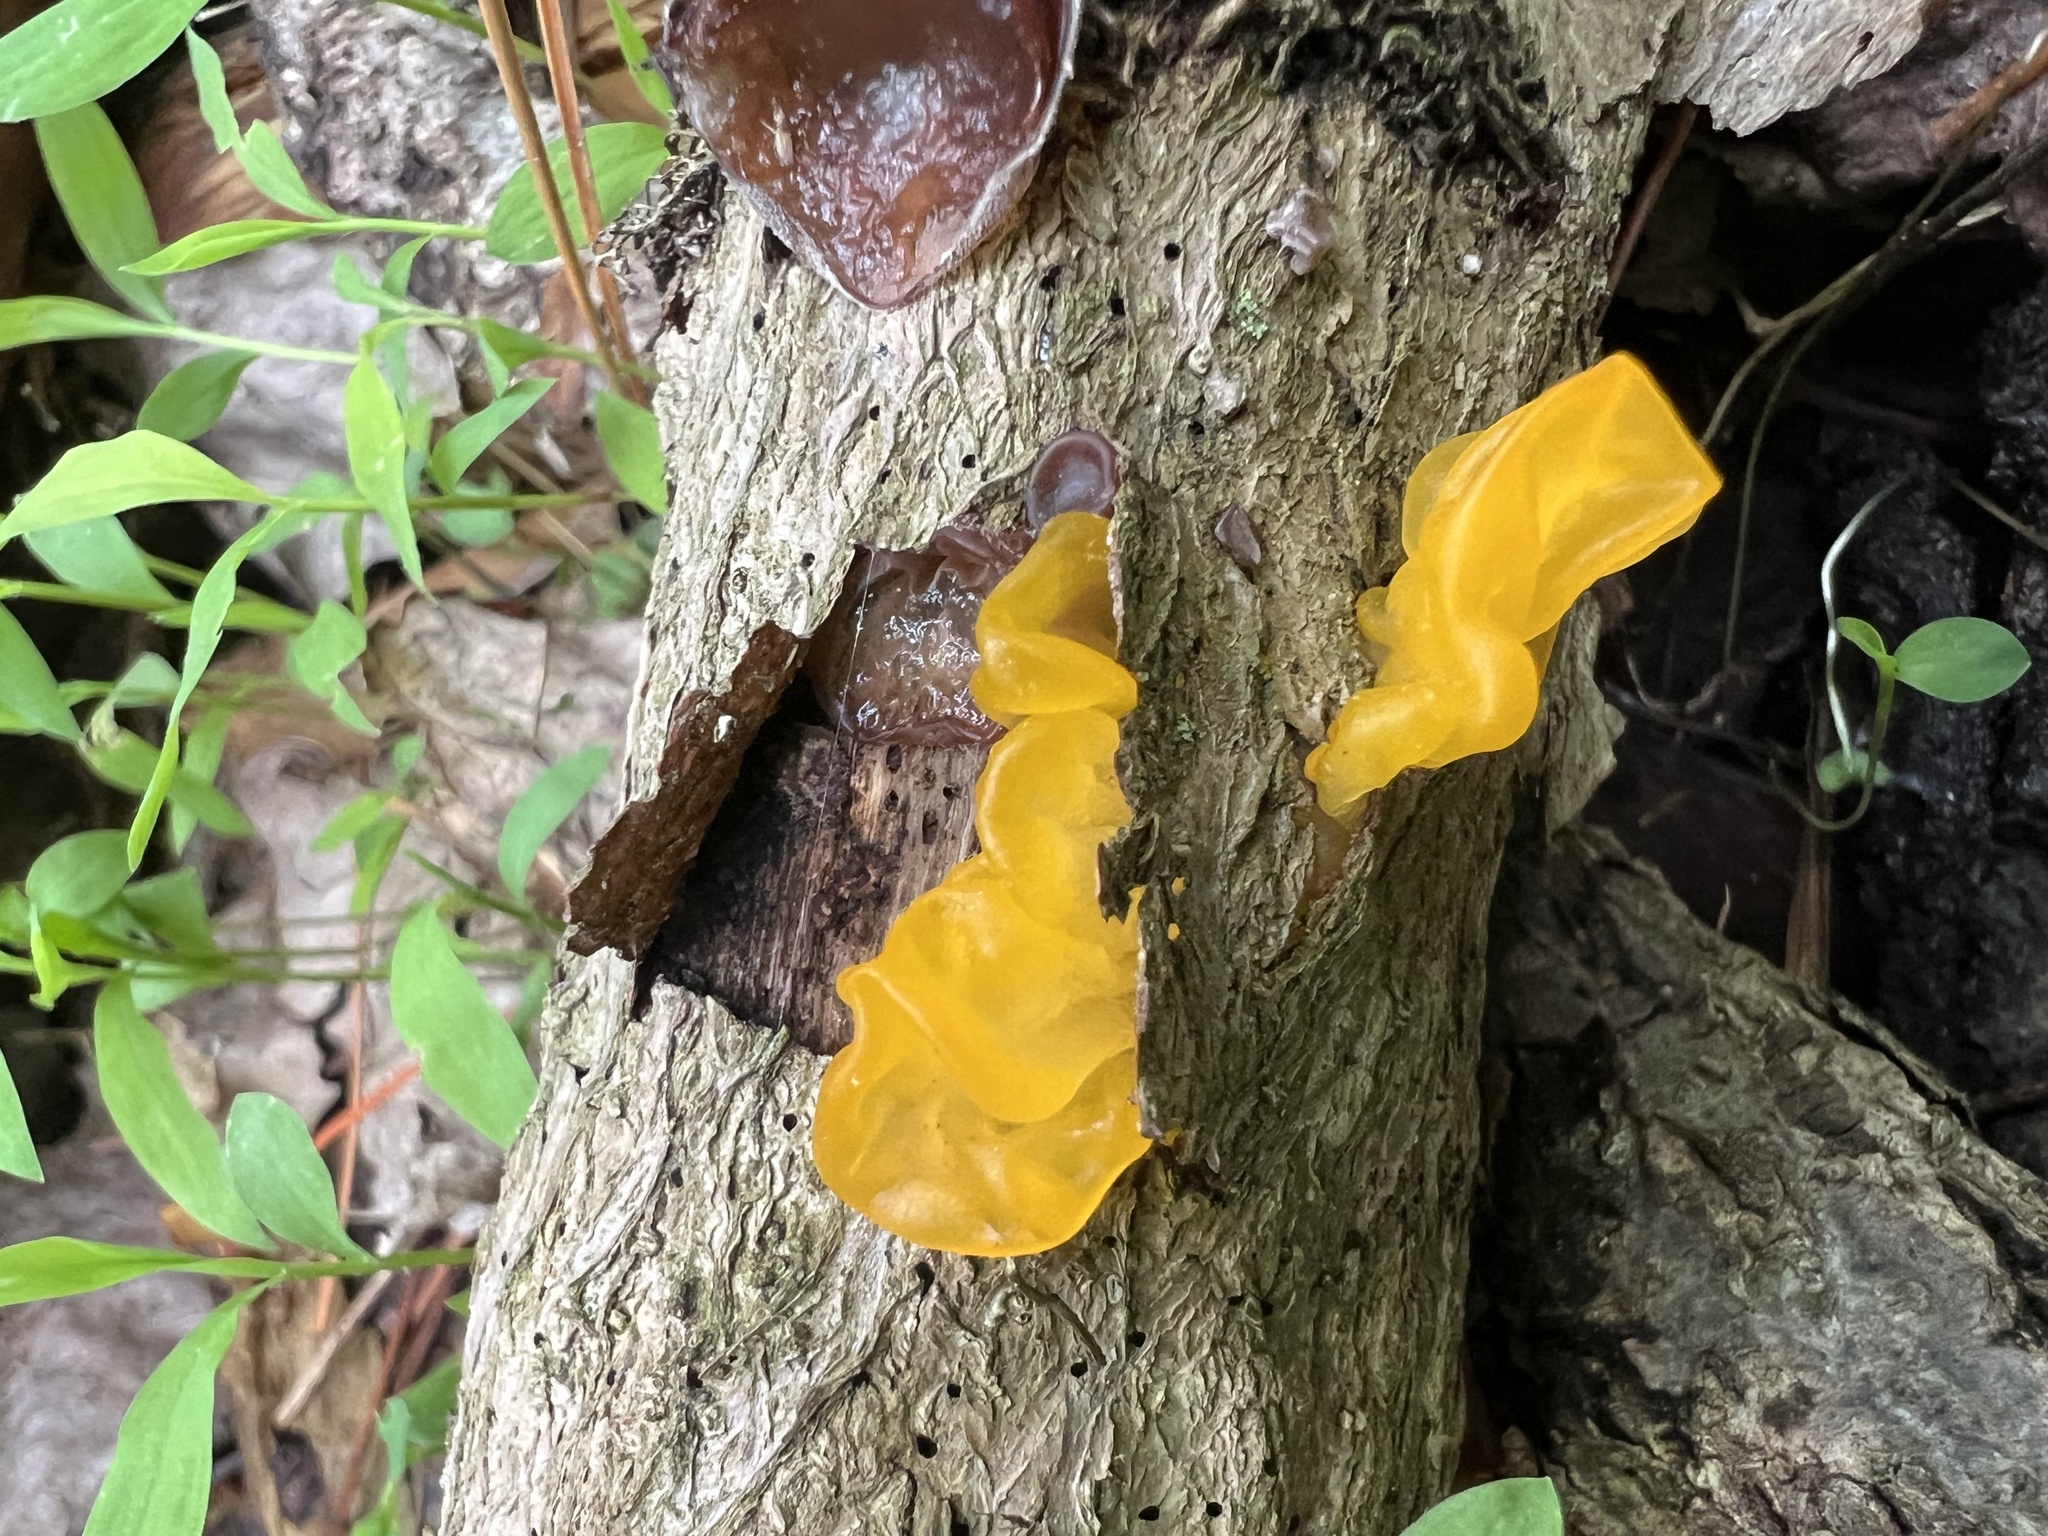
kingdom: Fungi
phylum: Basidiomycota
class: Tremellomycetes
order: Tremellales
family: Tremellaceae
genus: Tremella
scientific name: Tremella mesenterica
